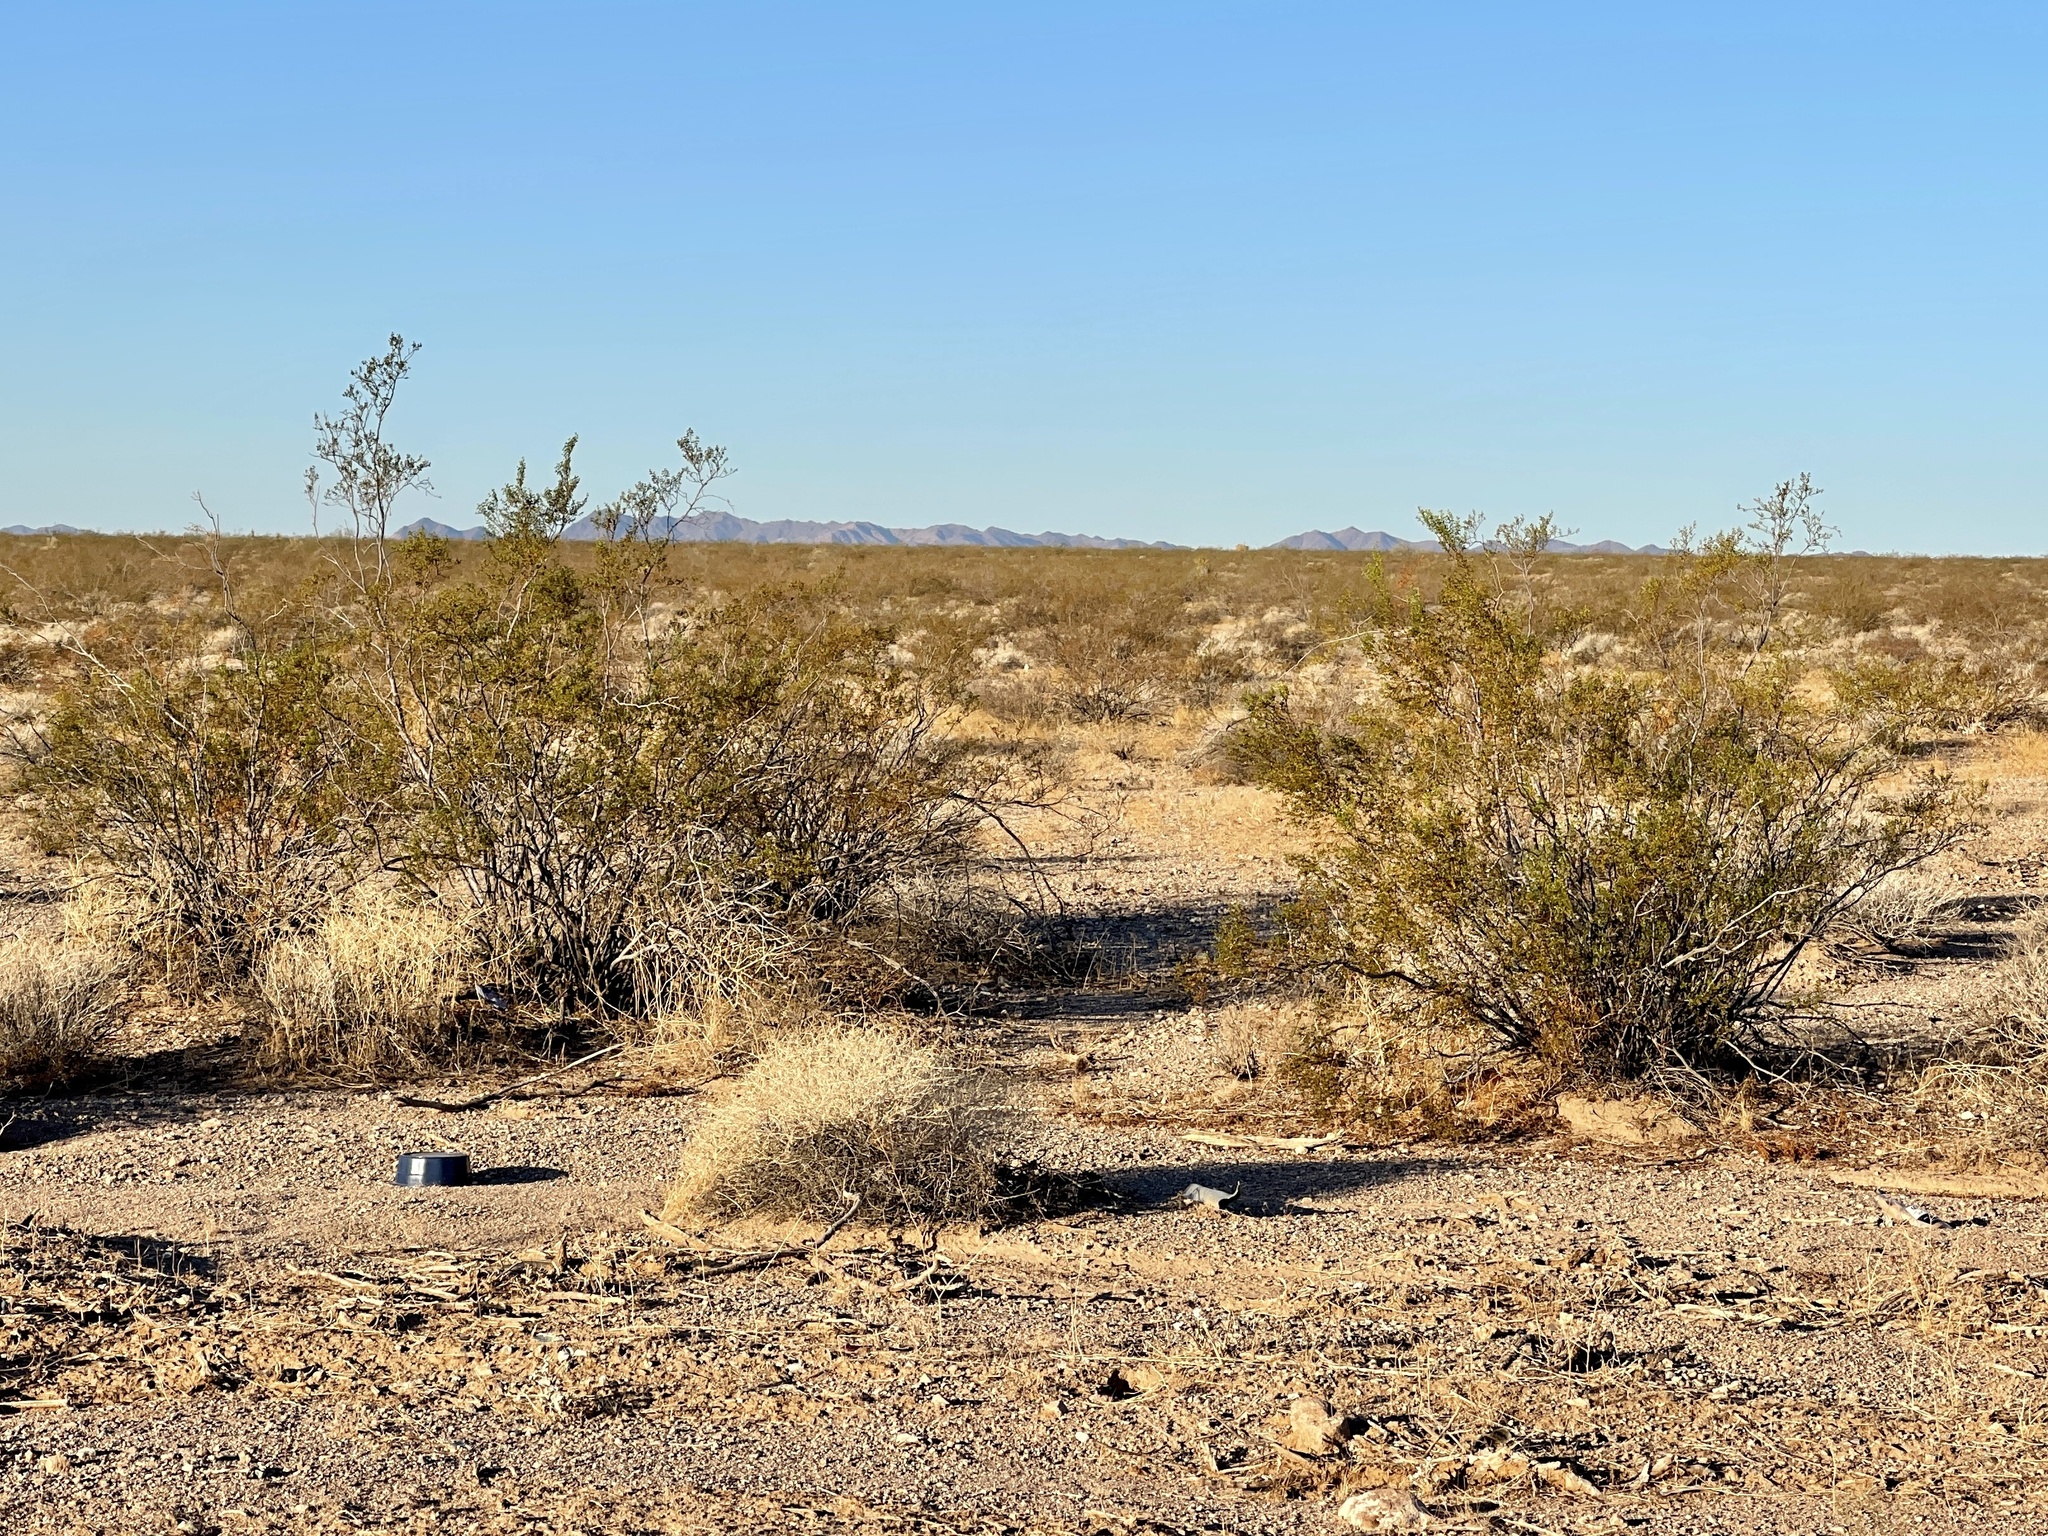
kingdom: Plantae
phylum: Tracheophyta
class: Magnoliopsida
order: Zygophyllales
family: Zygophyllaceae
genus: Larrea
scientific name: Larrea tridentata
